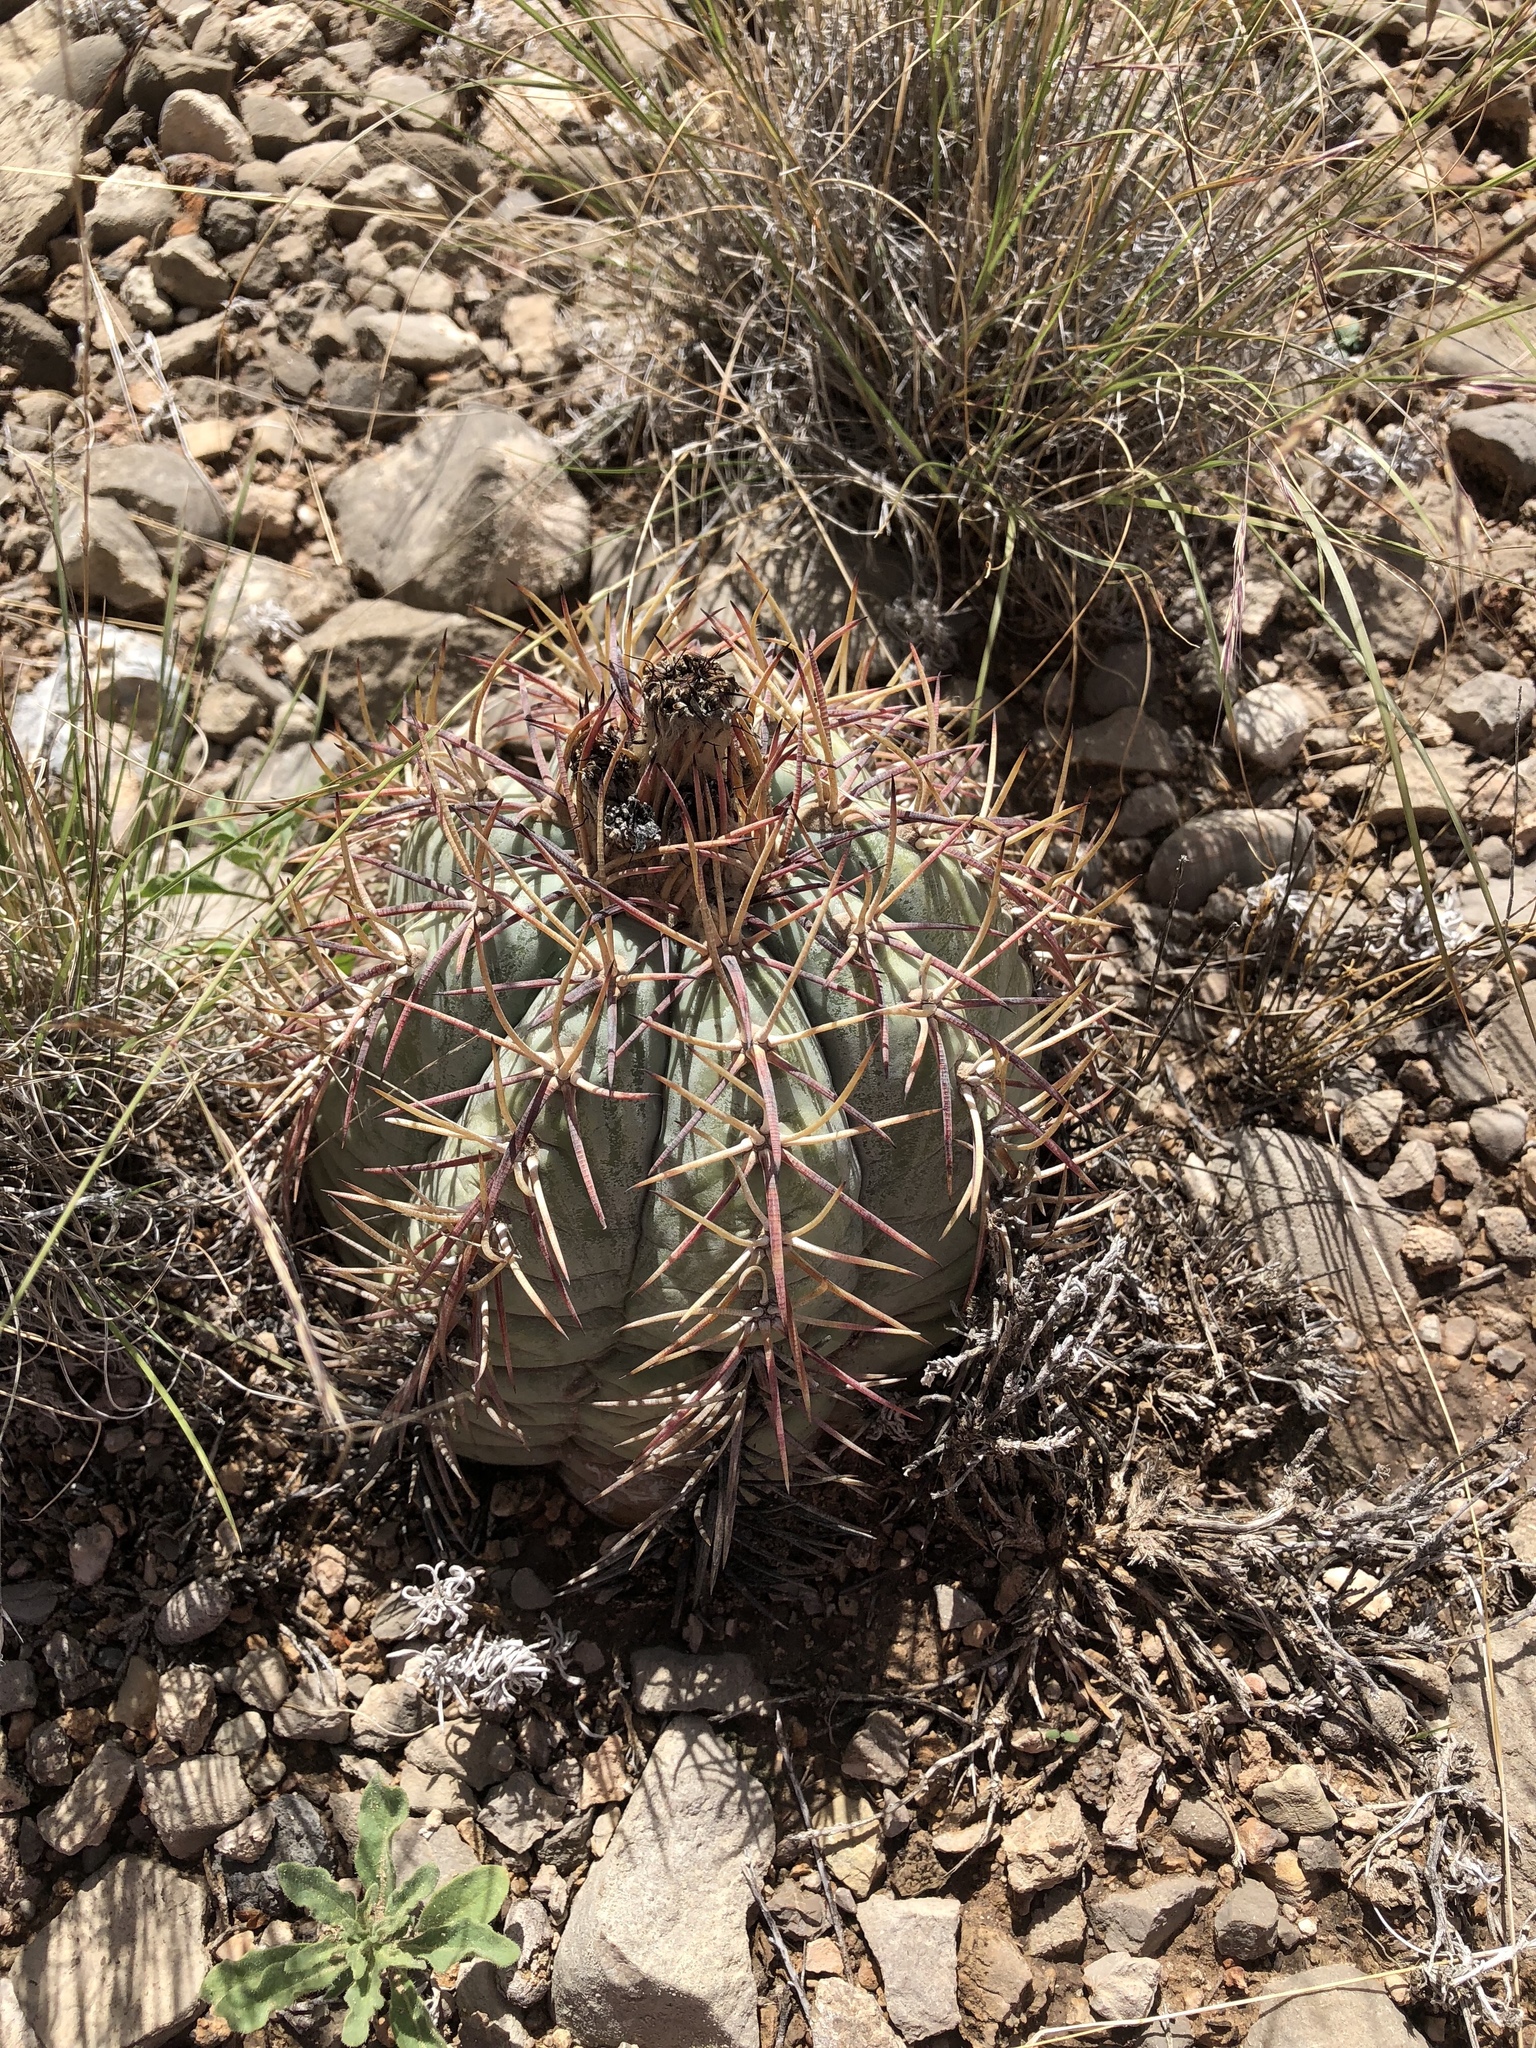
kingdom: Plantae
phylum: Tracheophyta
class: Magnoliopsida
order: Caryophyllales
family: Cactaceae
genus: Echinocactus
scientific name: Echinocactus horizonthalonius
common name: Devilshead
